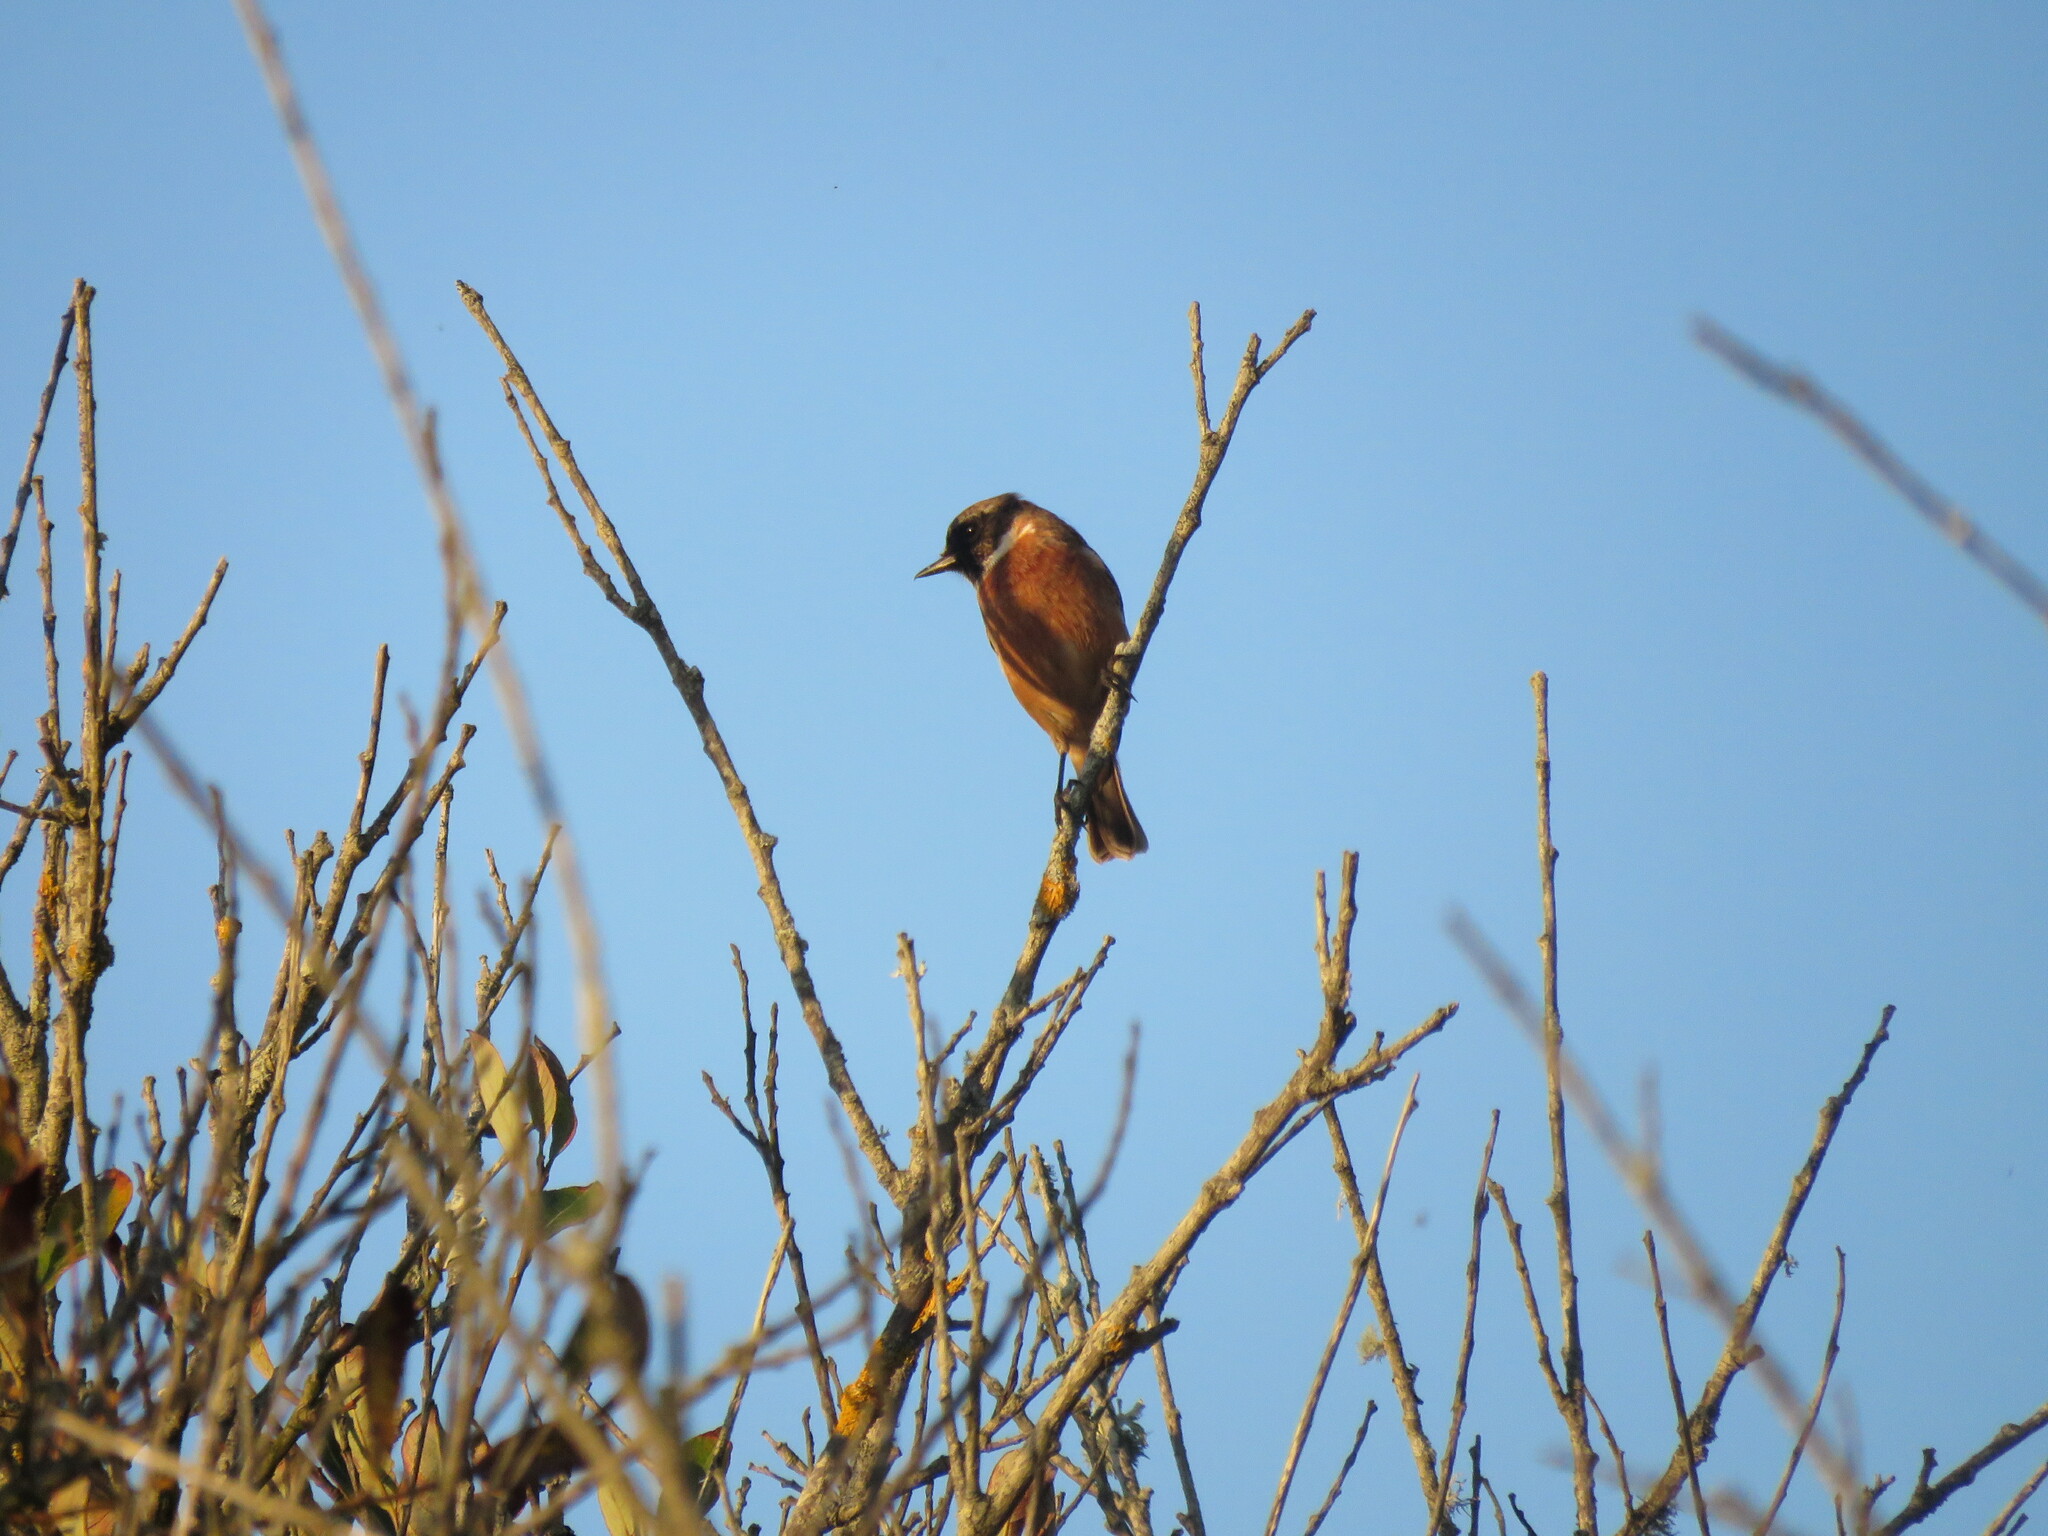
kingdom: Animalia
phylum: Chordata
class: Aves
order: Passeriformes
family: Muscicapidae
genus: Saxicola
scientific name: Saxicola rubicola
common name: European stonechat
